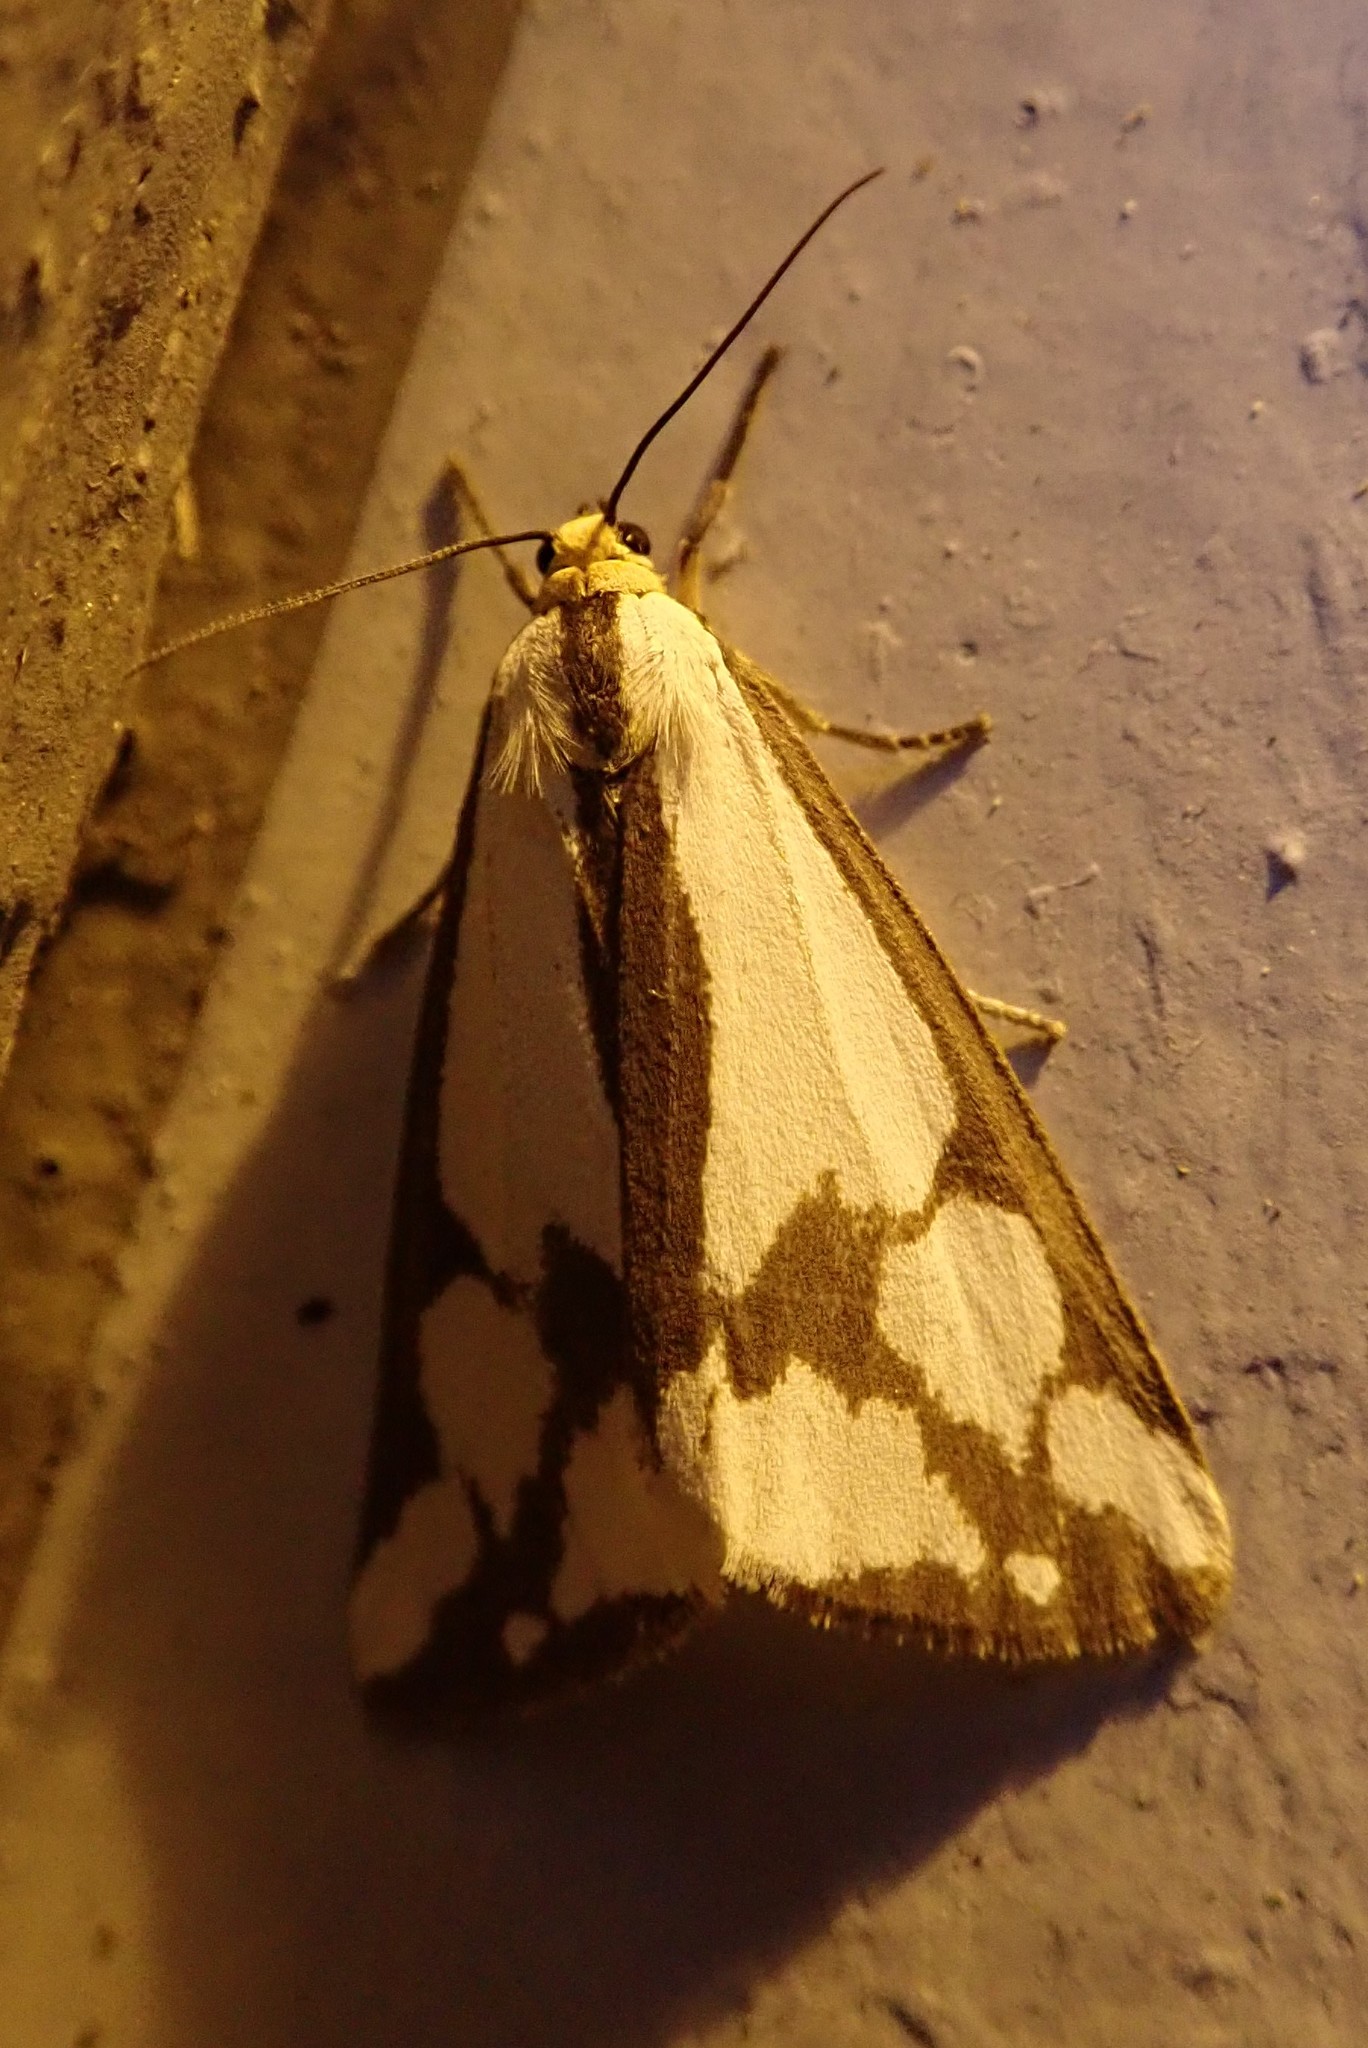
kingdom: Animalia
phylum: Arthropoda
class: Insecta
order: Lepidoptera
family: Erebidae
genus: Haploa
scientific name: Haploa confusa
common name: Confused haploa moth
